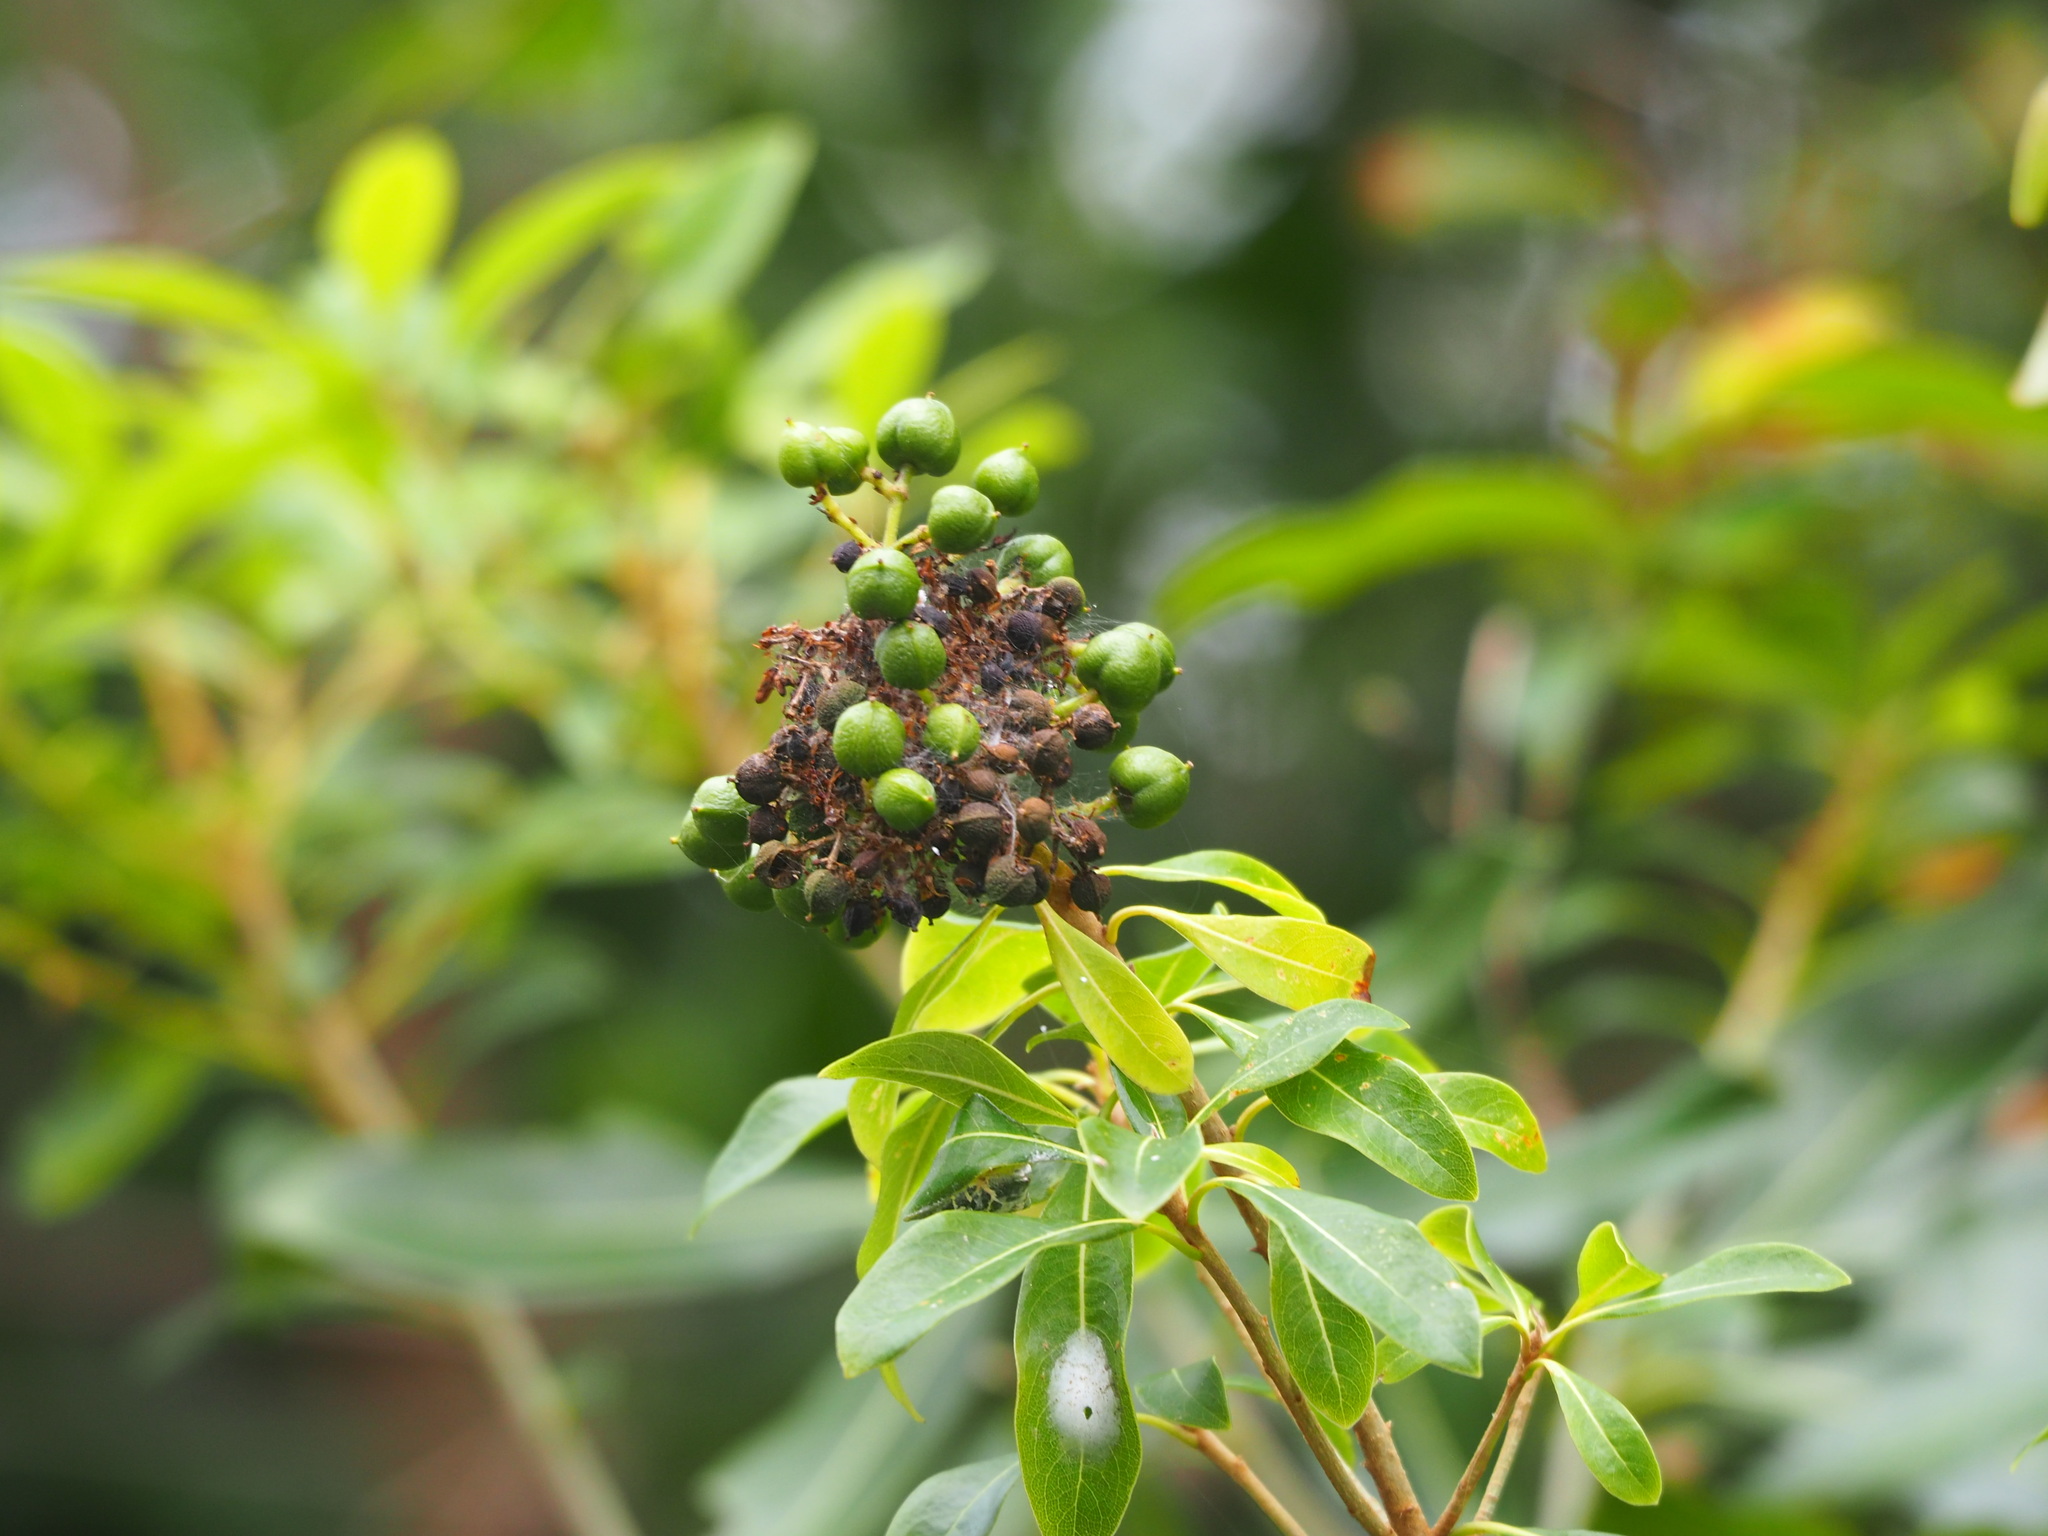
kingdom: Plantae
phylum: Tracheophyta
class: Magnoliopsida
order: Apiales
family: Pittosporaceae
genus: Pittosporum
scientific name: Pittosporum pentandrum
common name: Taiwanese cheesewood
